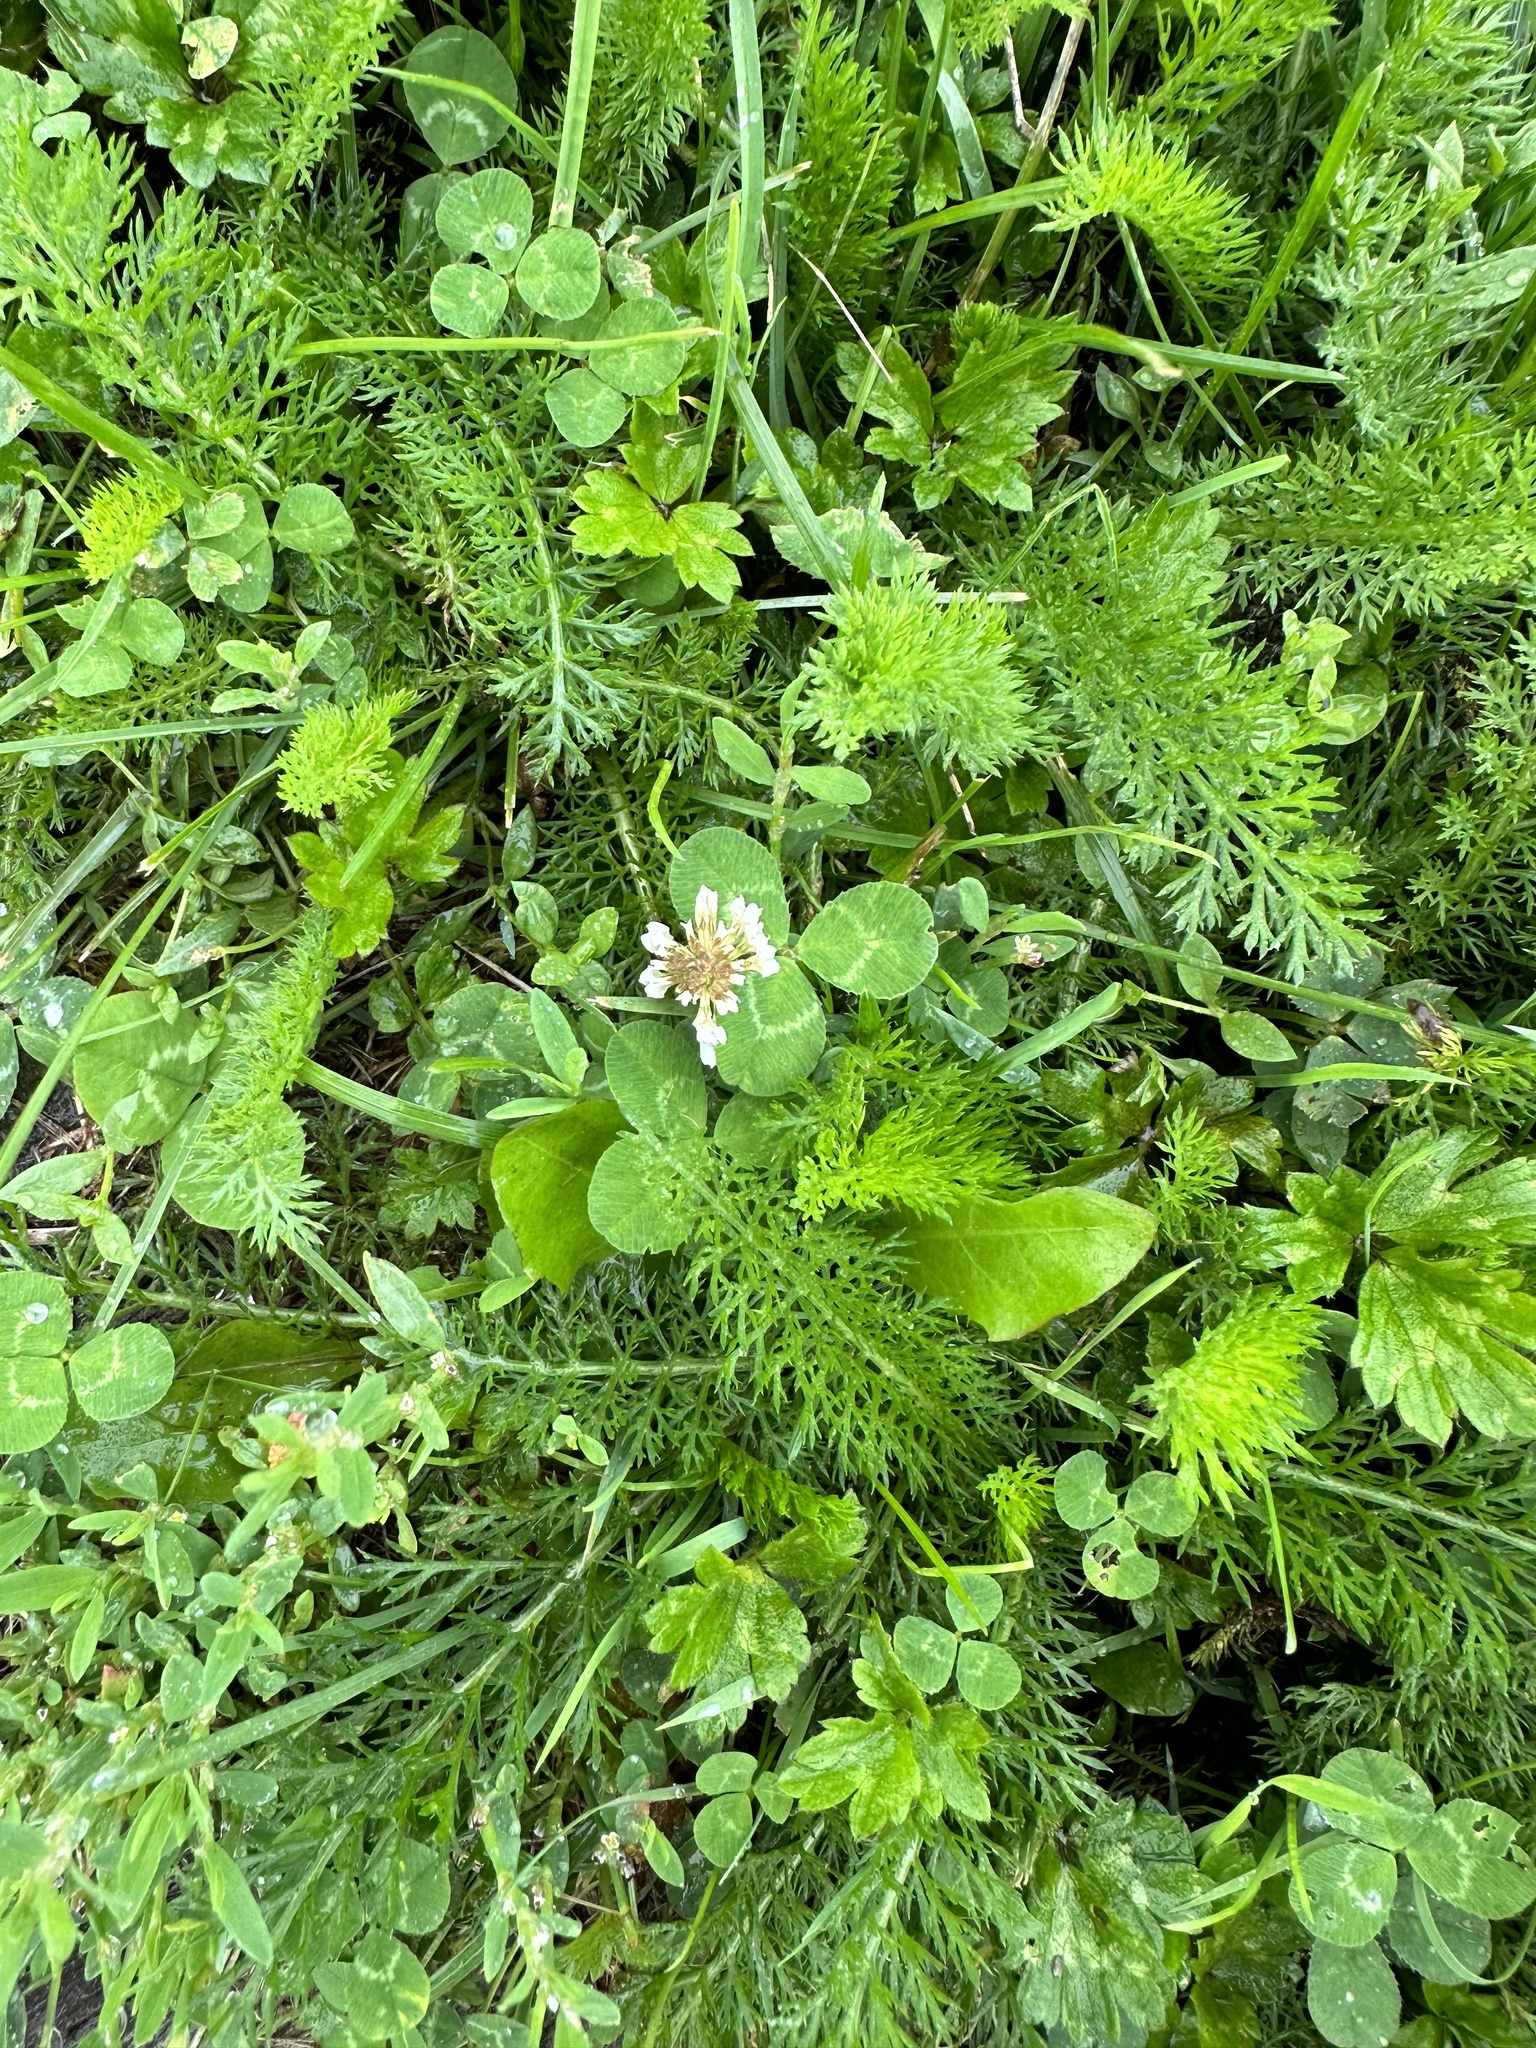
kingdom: Plantae
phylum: Tracheophyta
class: Magnoliopsida
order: Fabales
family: Fabaceae
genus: Trifolium
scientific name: Trifolium repens
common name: White clover
